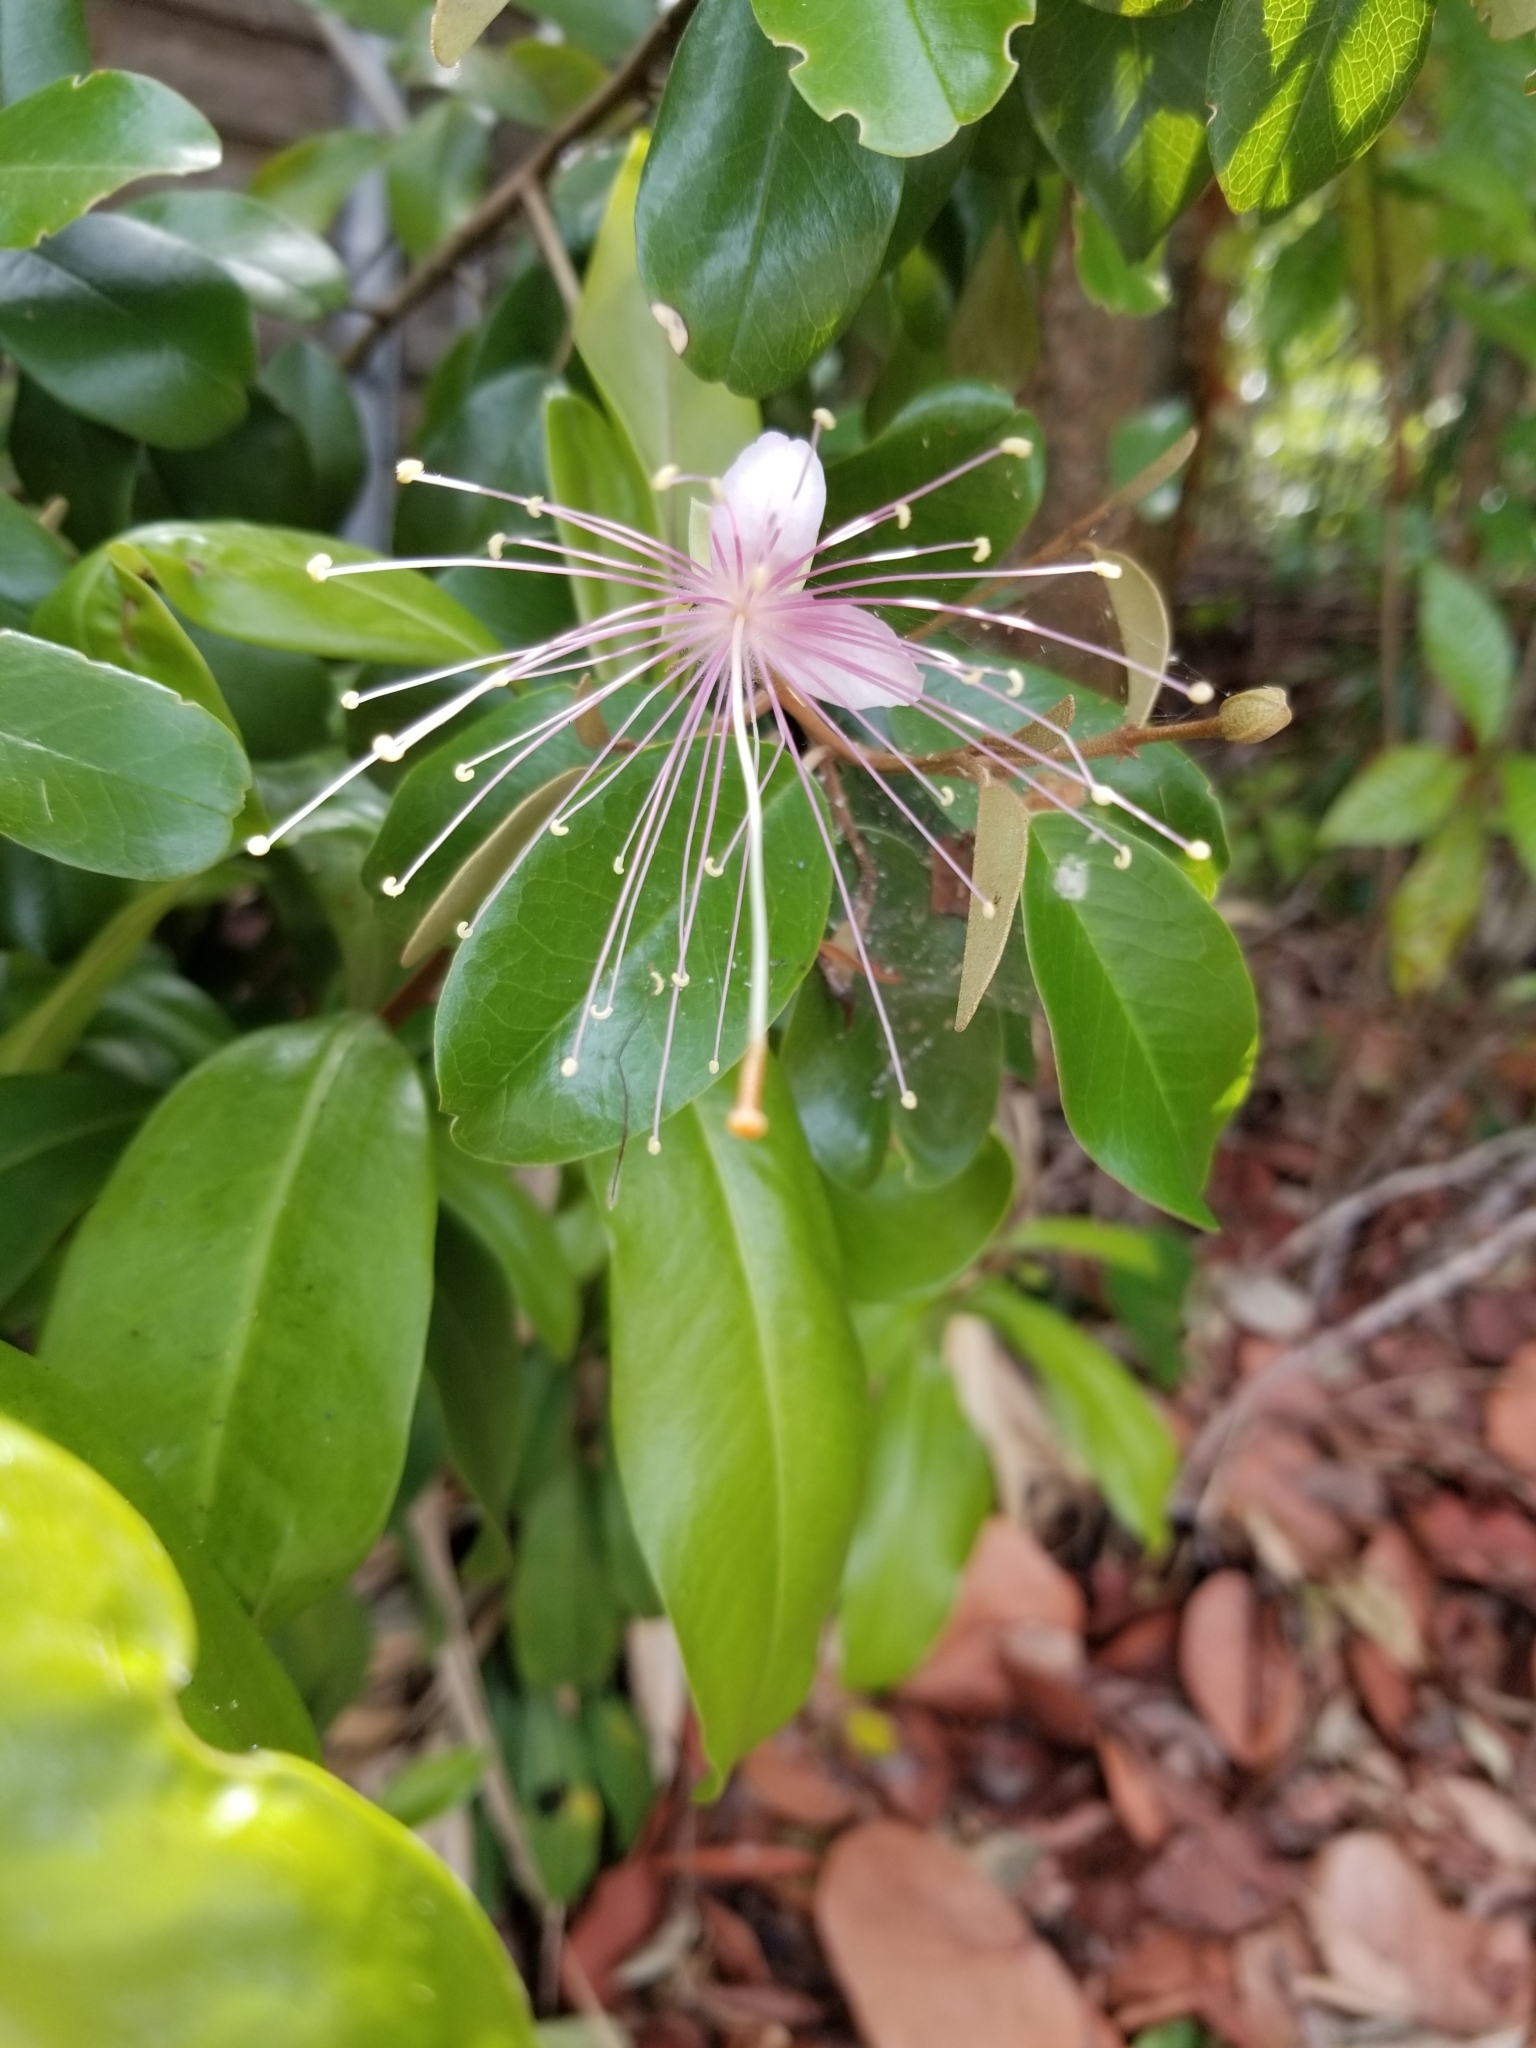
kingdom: Plantae
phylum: Tracheophyta
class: Magnoliopsida
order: Brassicales
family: Capparaceae
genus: Quadrella
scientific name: Quadrella cynophallophora
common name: Black willow
